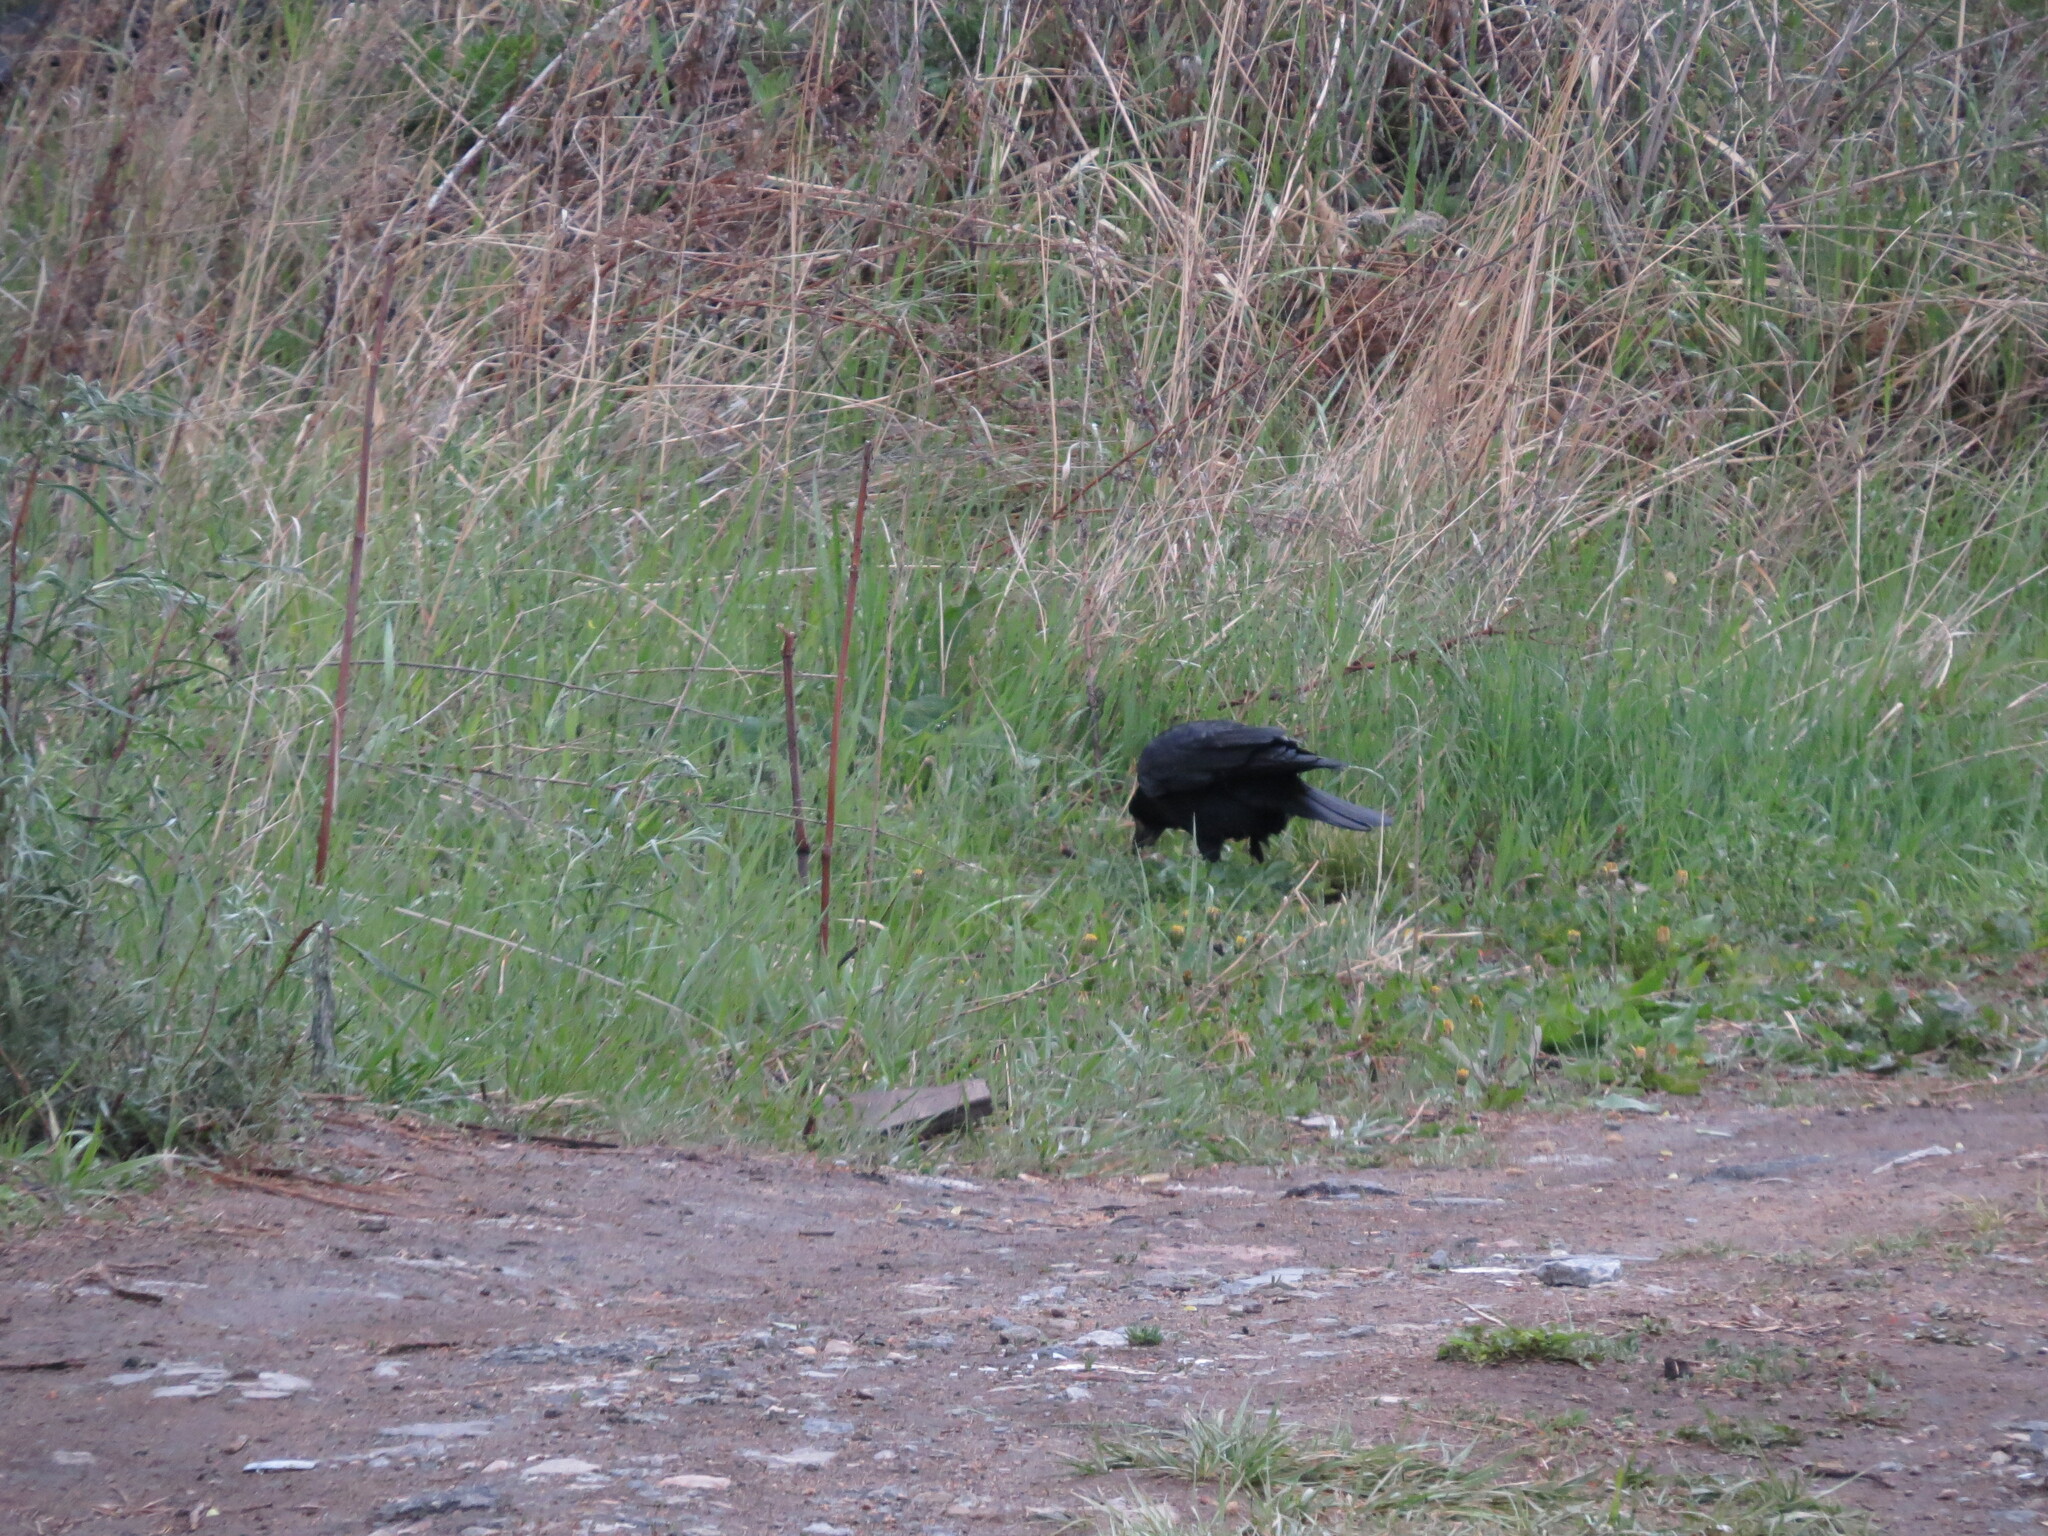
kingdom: Animalia
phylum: Chordata
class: Aves
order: Passeriformes
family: Corvidae
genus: Corvus
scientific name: Corvus frugilegus
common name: Rook
